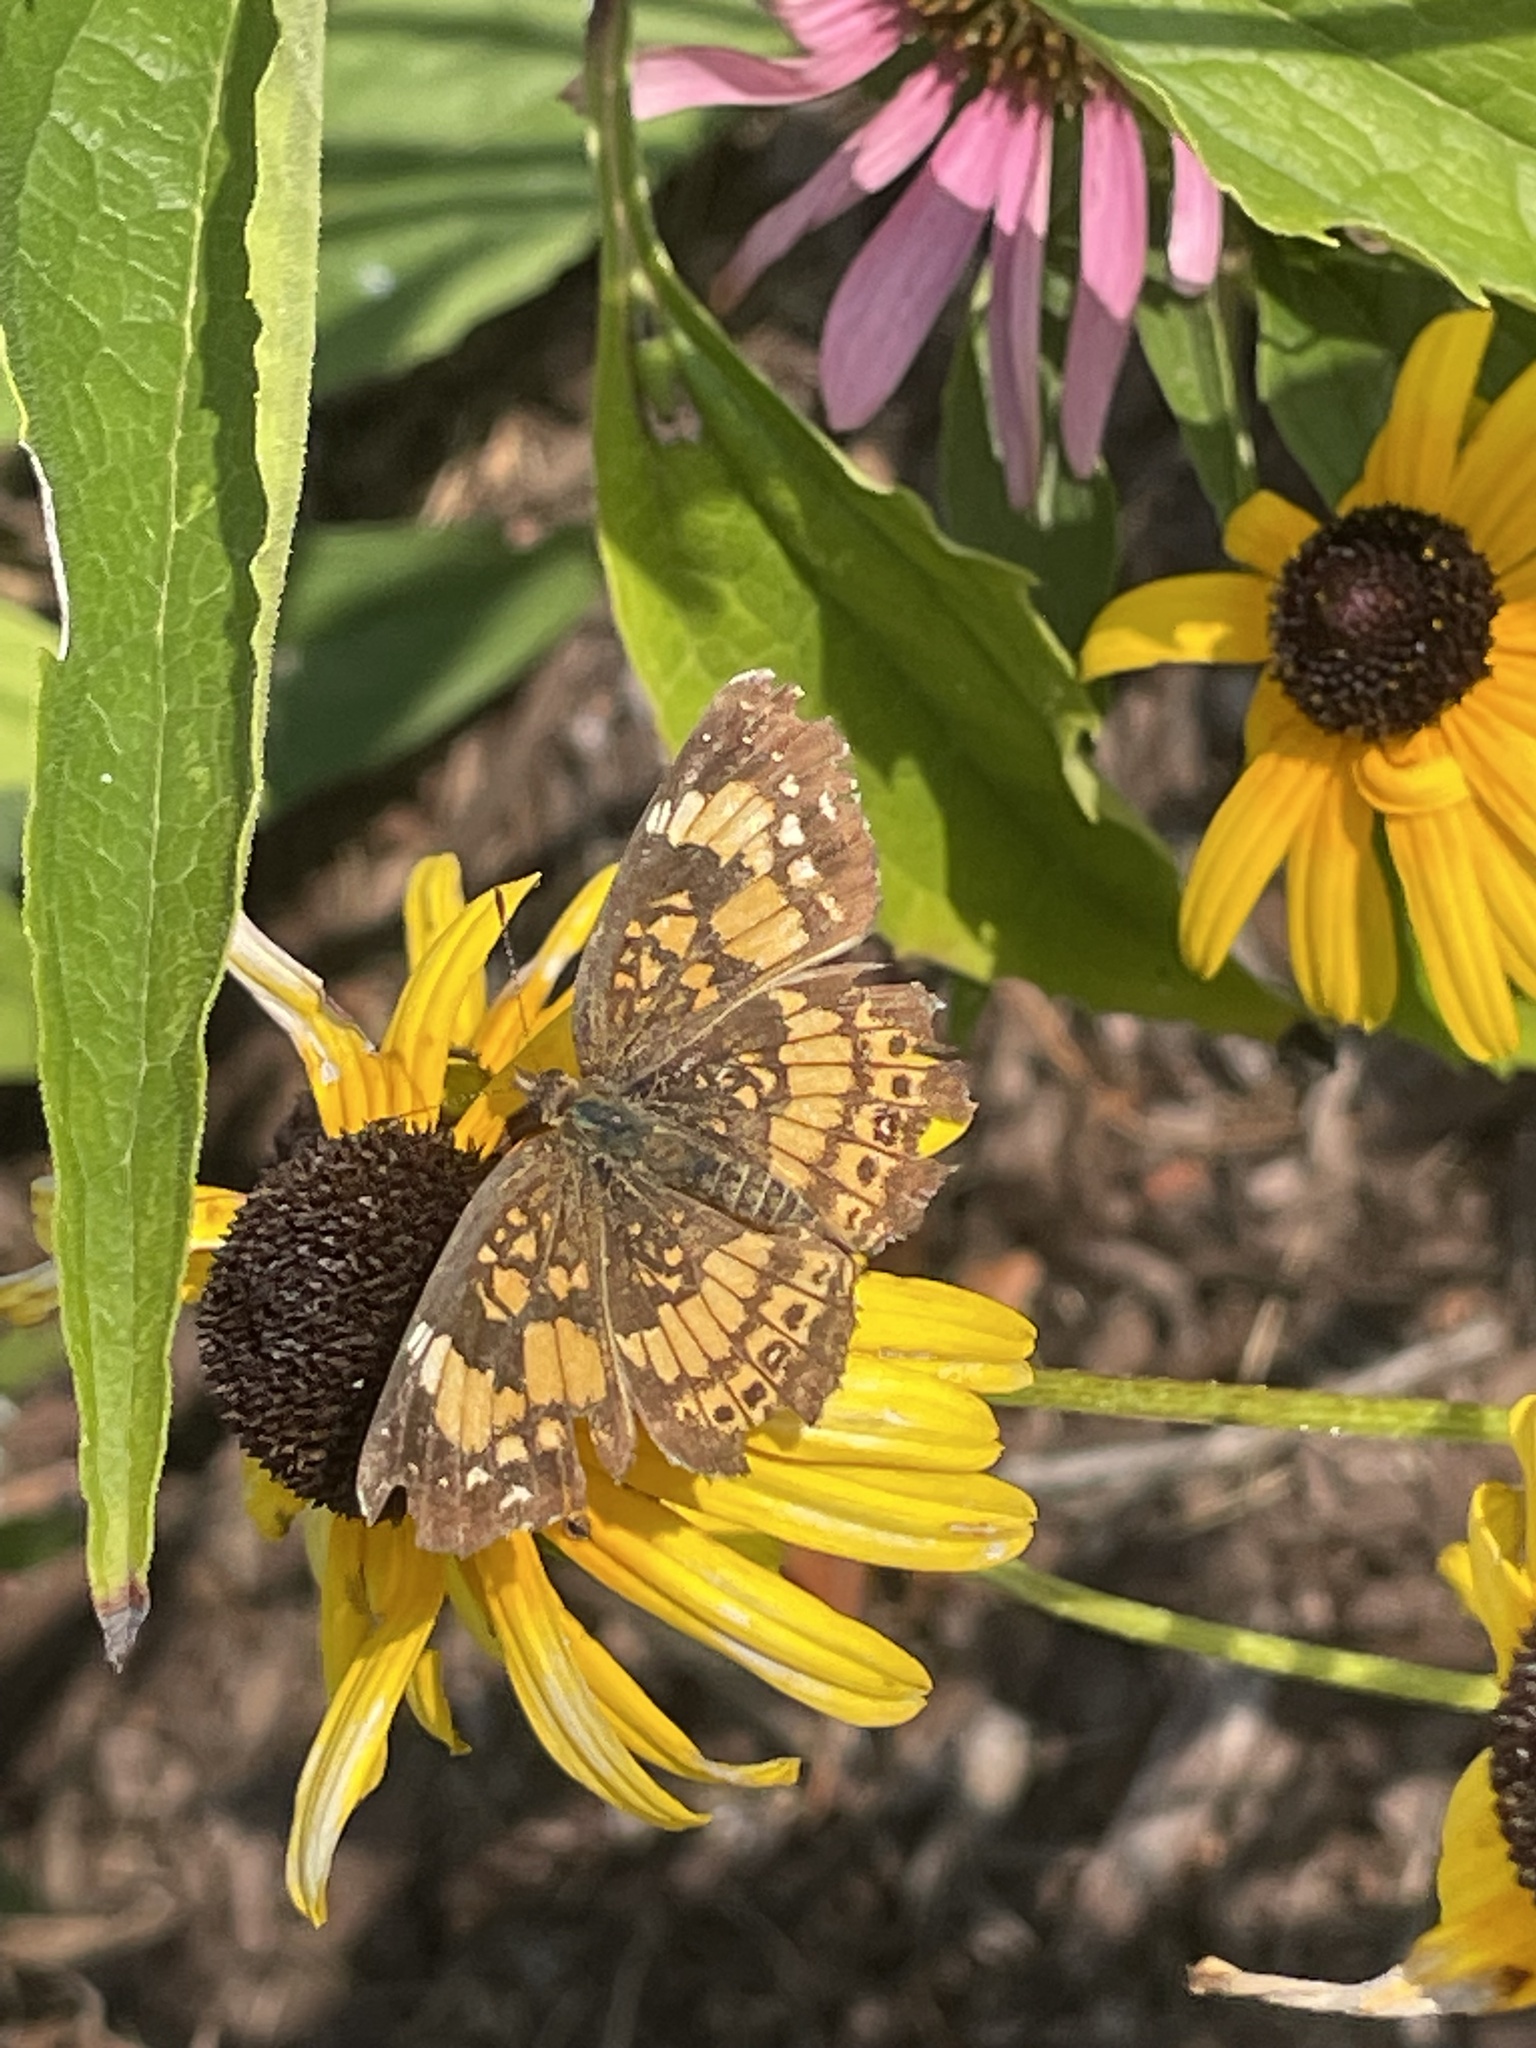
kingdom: Animalia
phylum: Arthropoda
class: Insecta
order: Lepidoptera
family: Nymphalidae
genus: Chlosyne
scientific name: Chlosyne nycteis
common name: Silvery checkerspot
